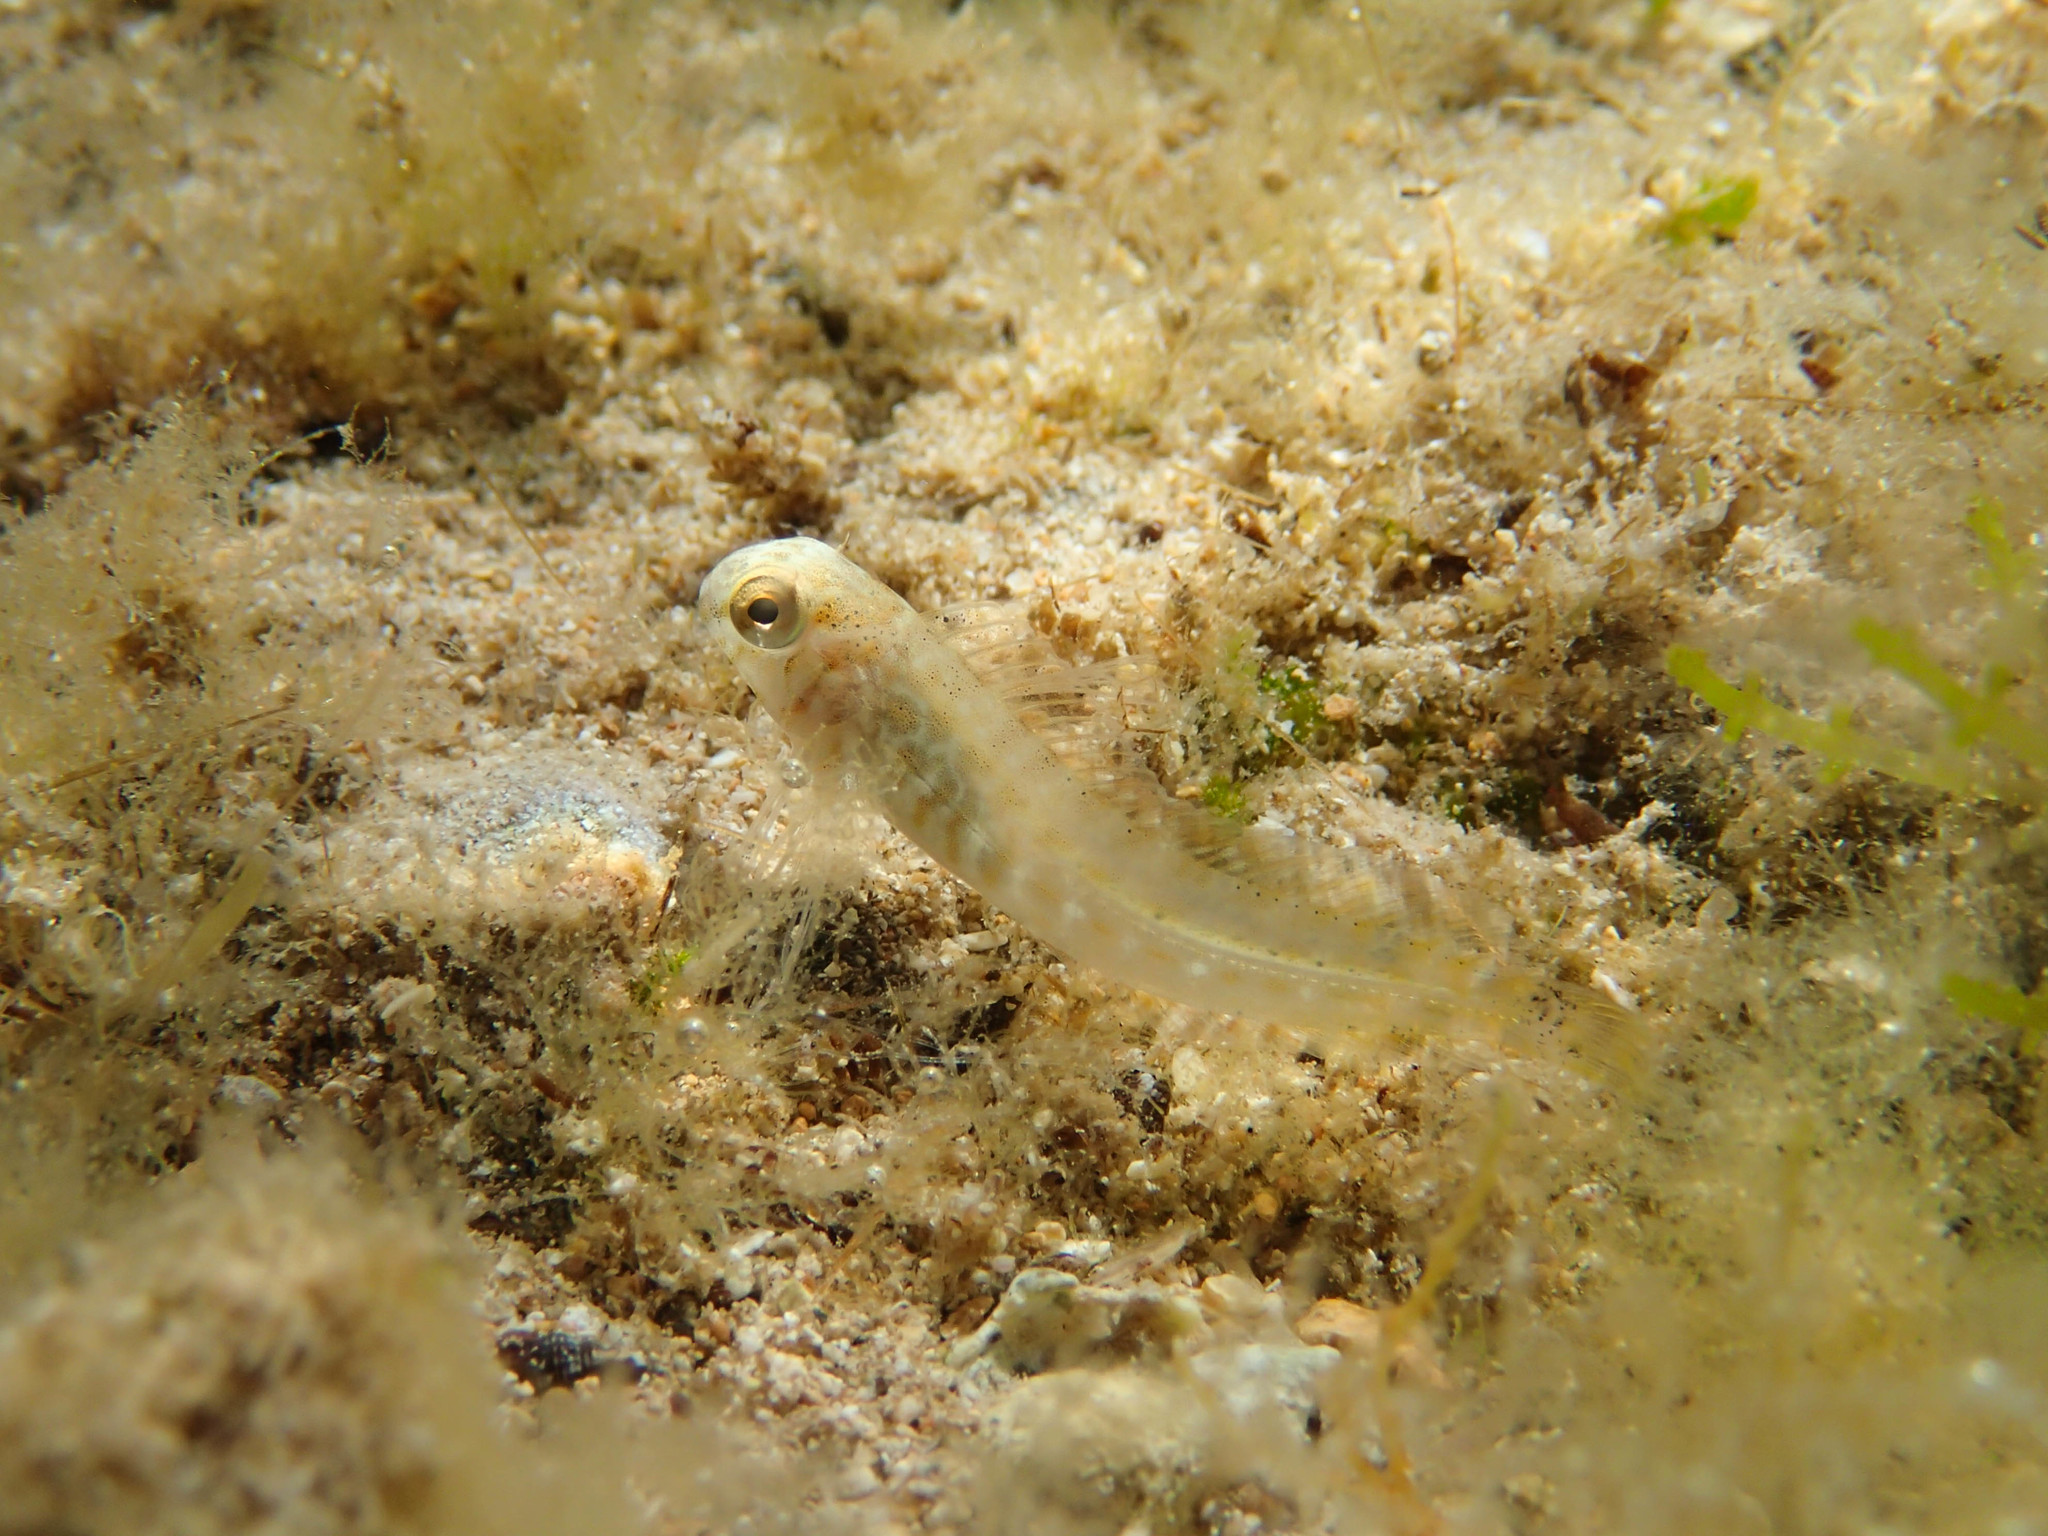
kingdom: Animalia
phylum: Chordata
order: Perciformes
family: Blenniidae
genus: Parablennius
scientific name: Parablennius sanguinolentus
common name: Black sea blenny
